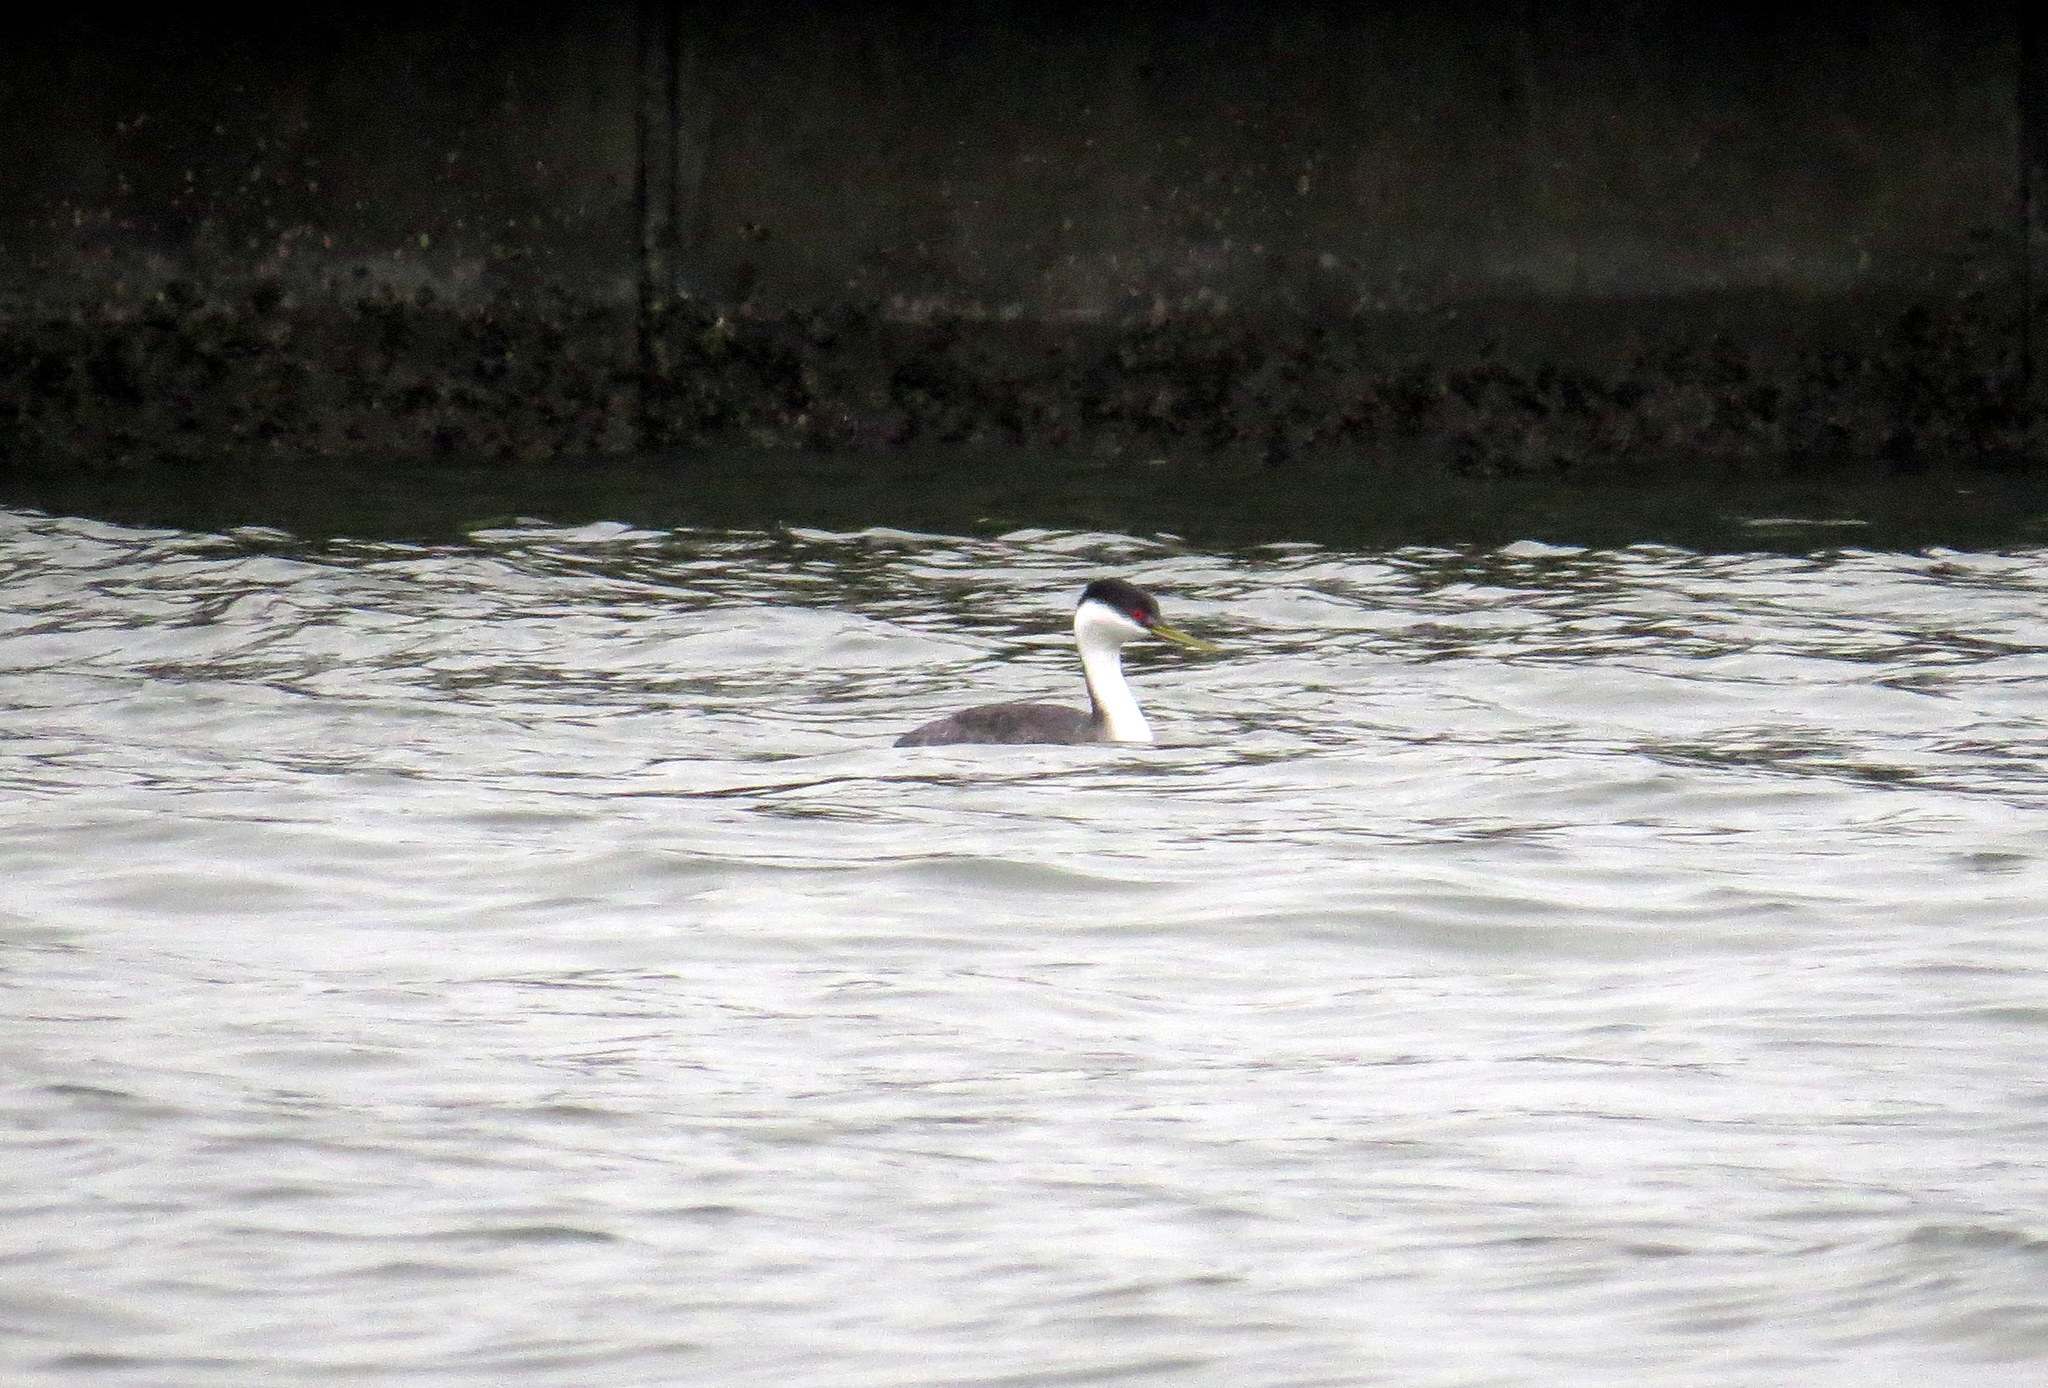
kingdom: Animalia
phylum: Chordata
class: Aves
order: Podicipediformes
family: Podicipedidae
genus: Aechmophorus
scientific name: Aechmophorus occidentalis
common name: Western grebe
